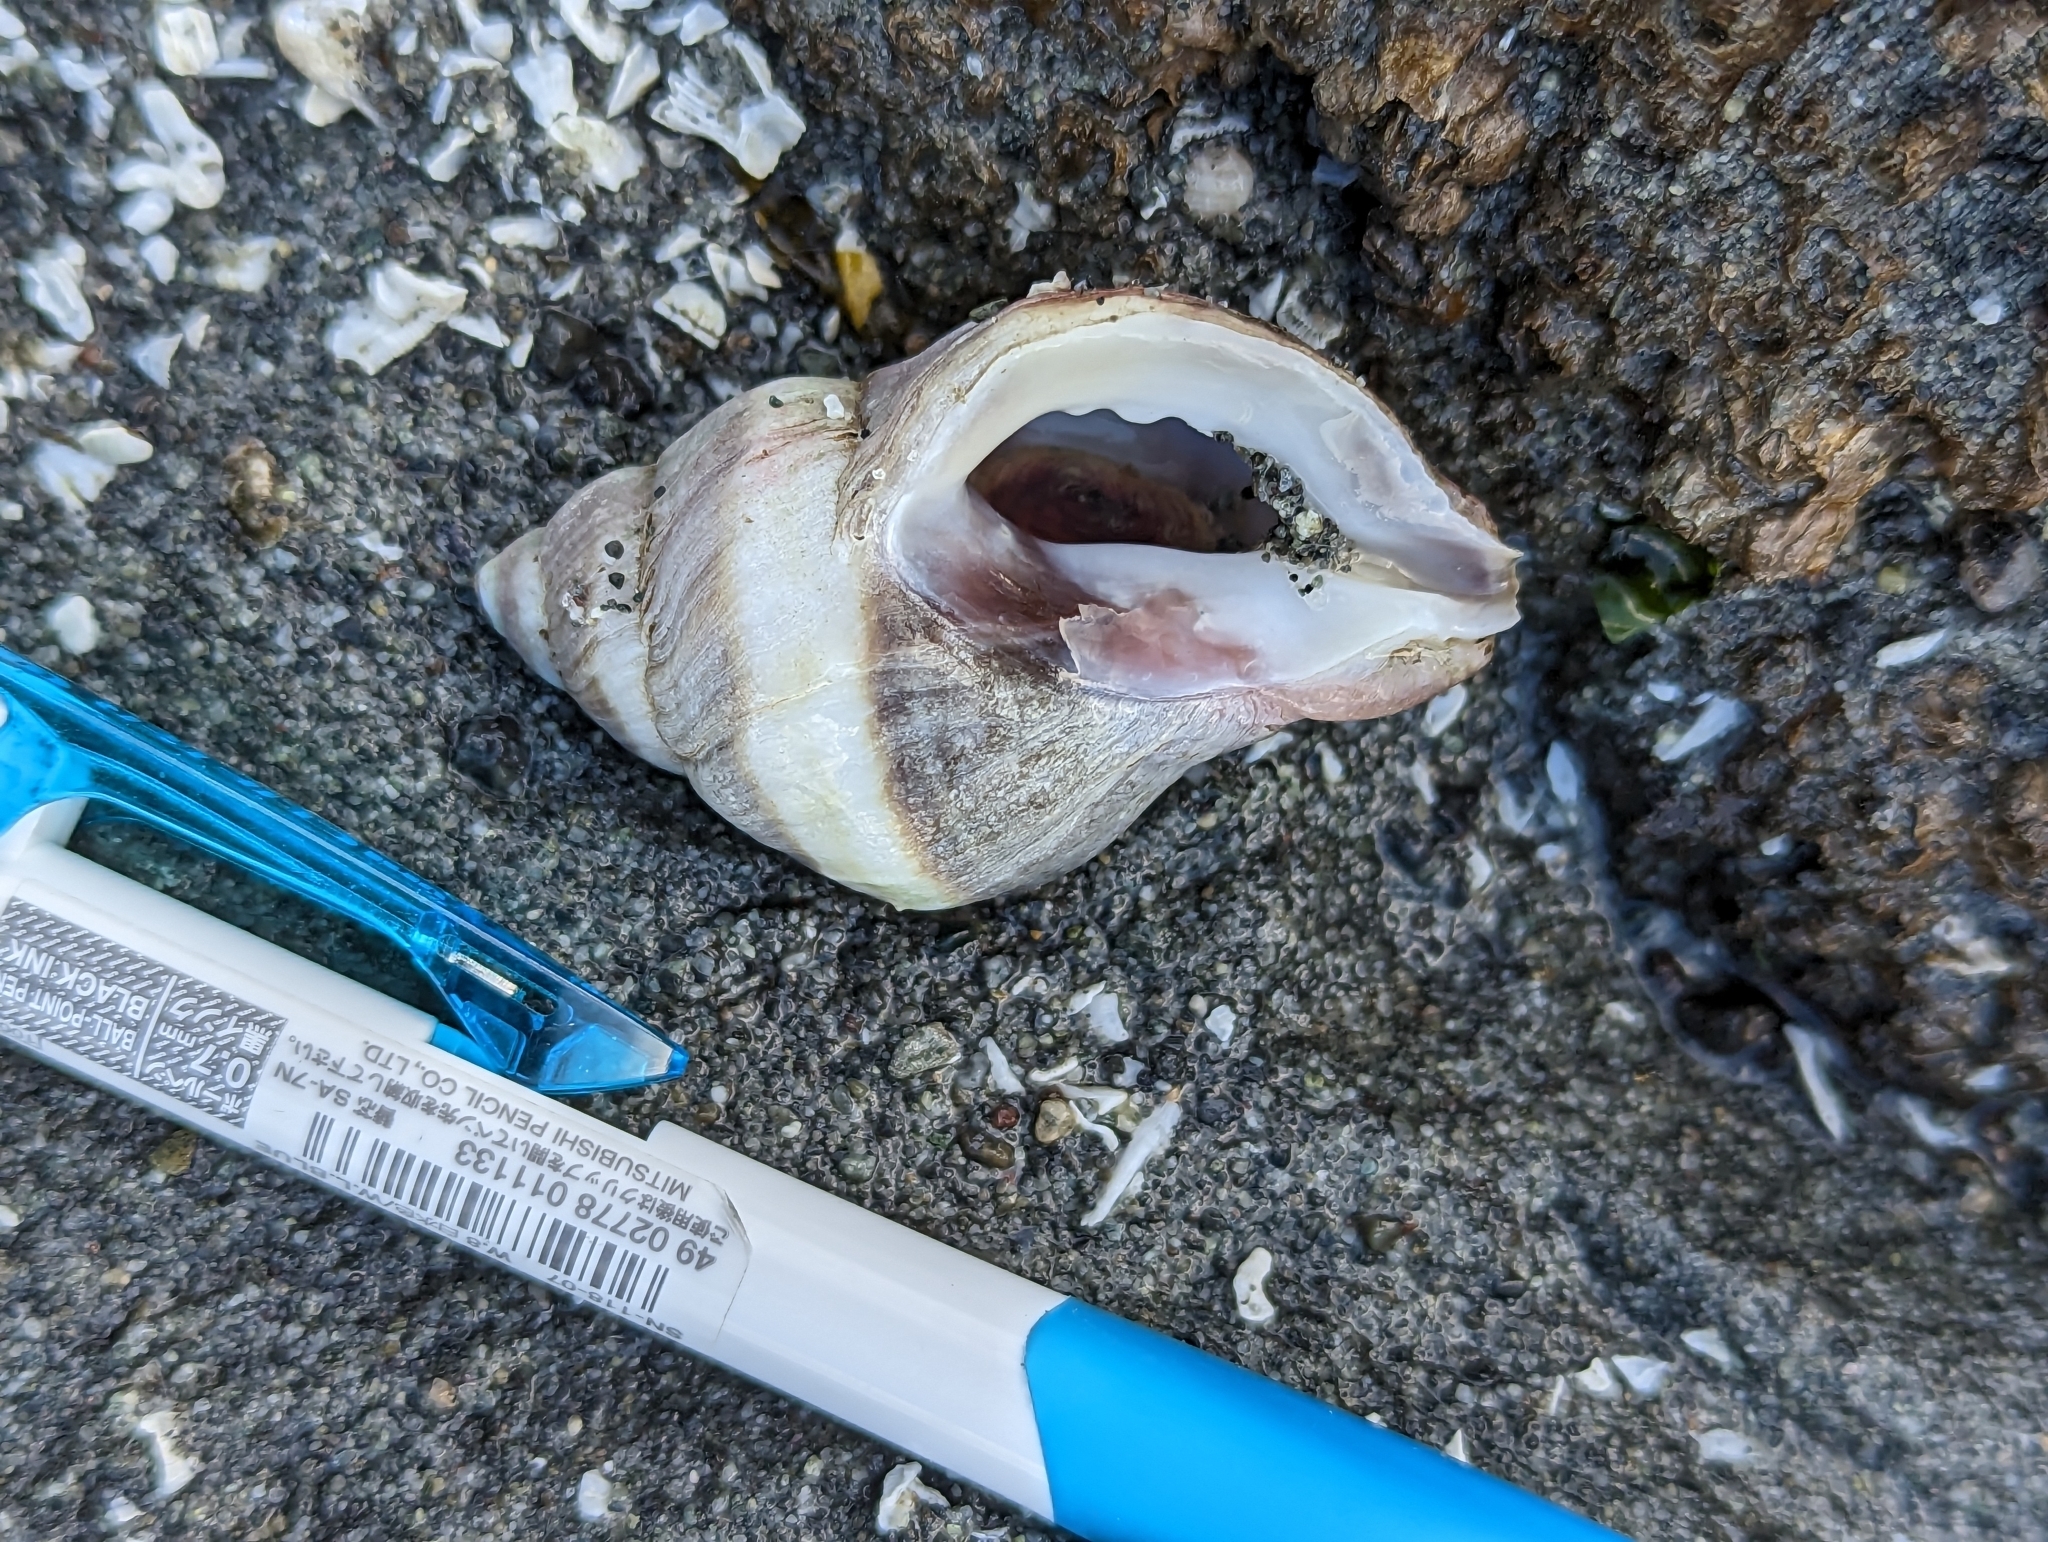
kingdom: Animalia
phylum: Mollusca
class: Gastropoda
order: Neogastropoda
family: Muricidae
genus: Nucella
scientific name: Nucella lamellosa
